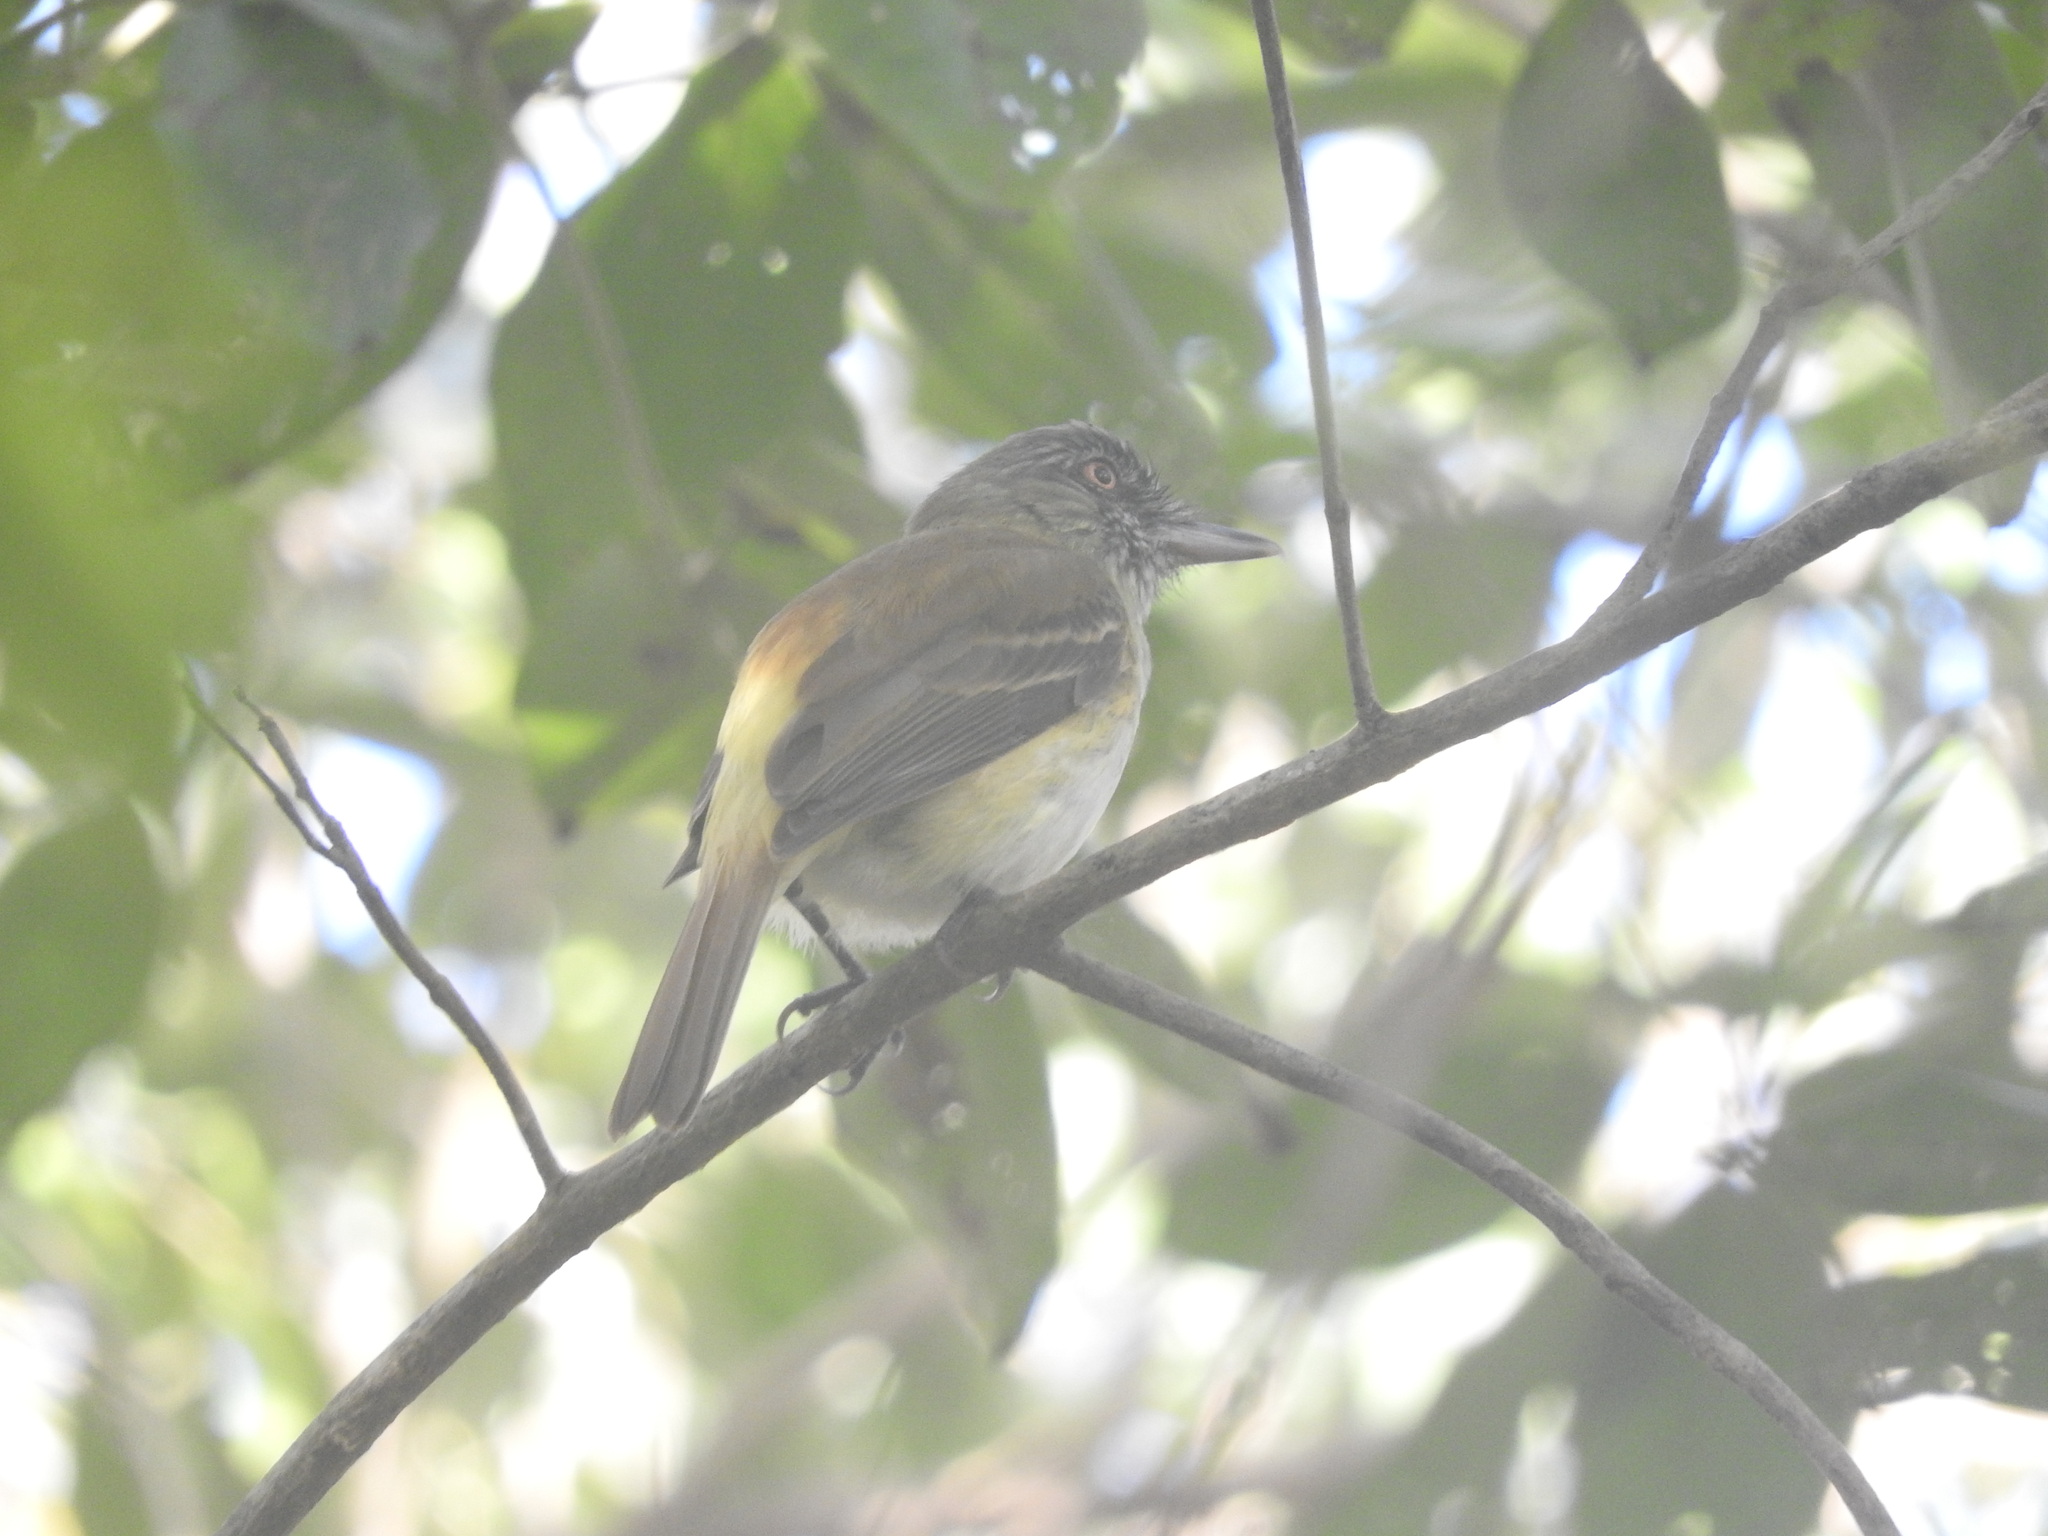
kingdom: Animalia
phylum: Chordata
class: Aves
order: Passeriformes
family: Tyrannidae
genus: Attila
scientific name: Attila spadiceus
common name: Bright-rumped attila
